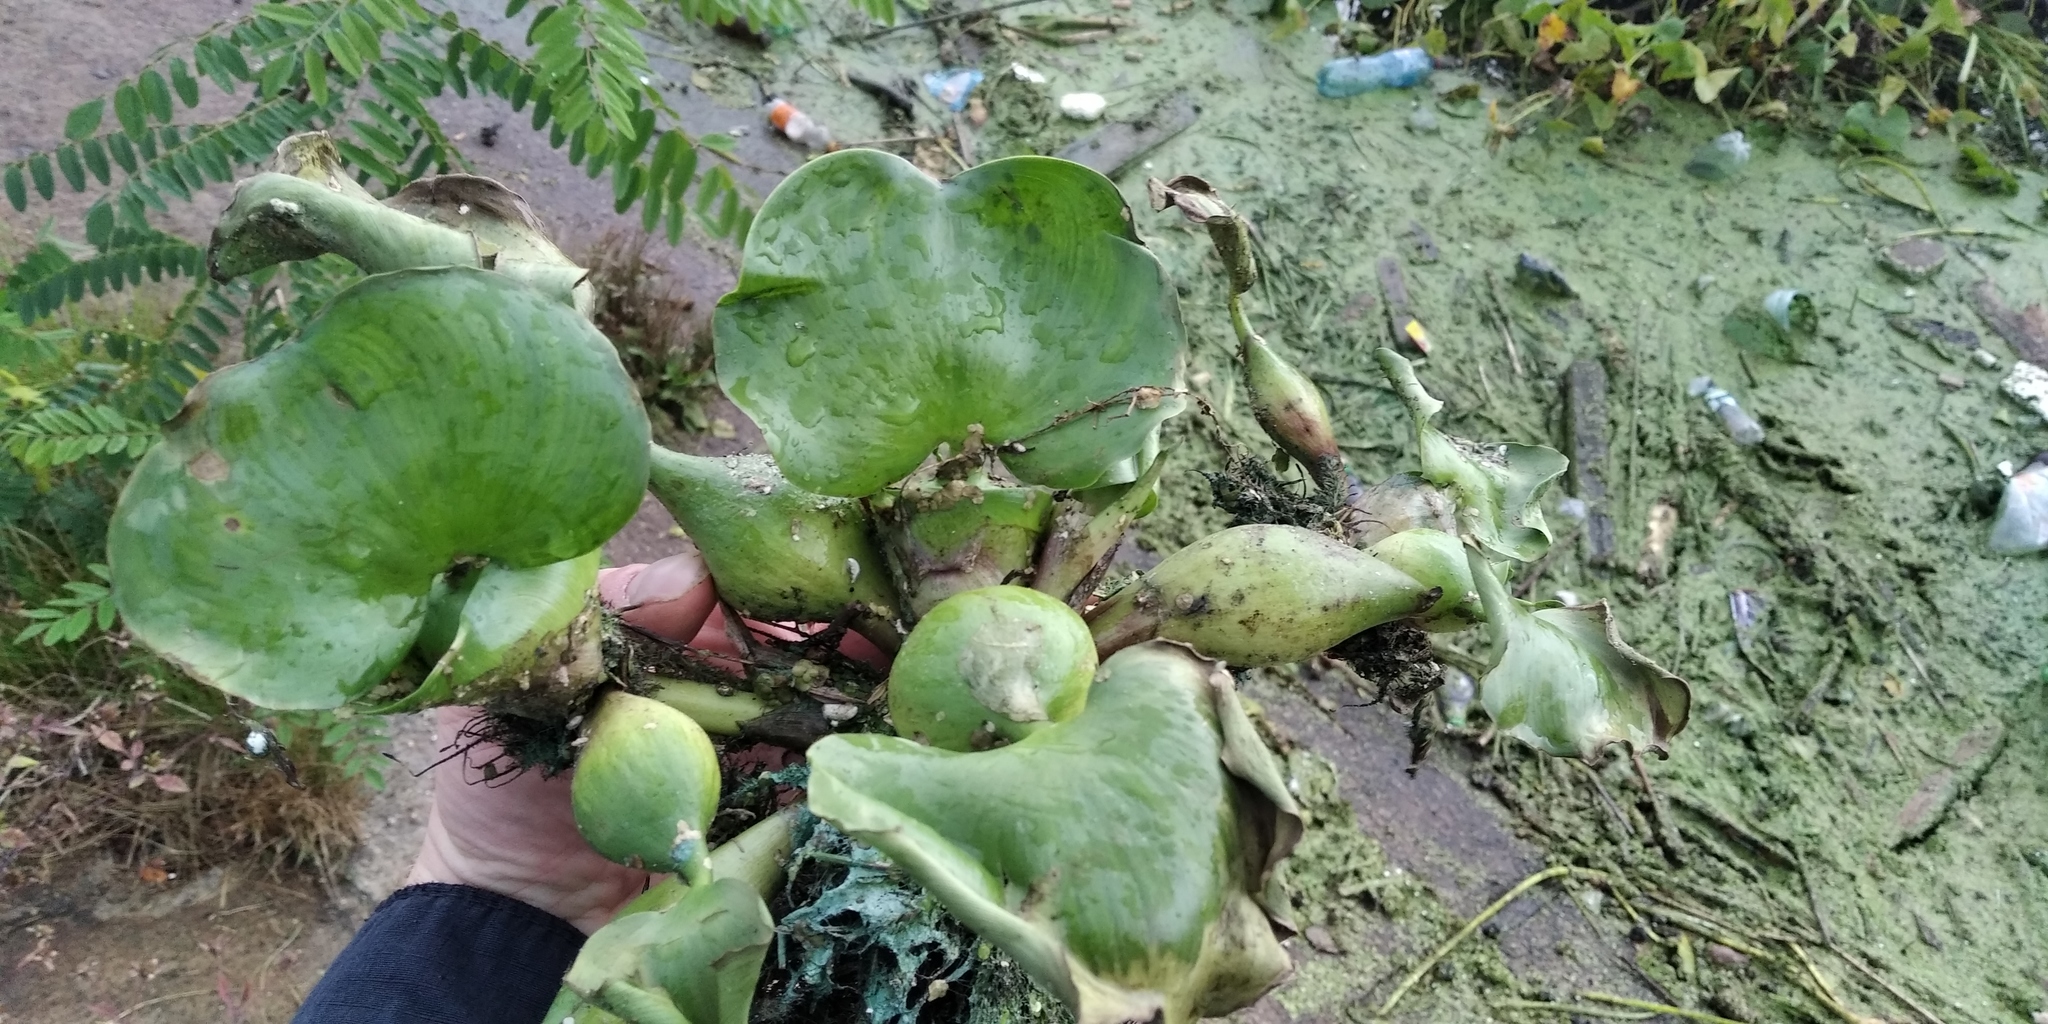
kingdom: Plantae
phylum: Tracheophyta
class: Liliopsida
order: Commelinales
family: Pontederiaceae
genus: Pontederia
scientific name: Pontederia crassipes
